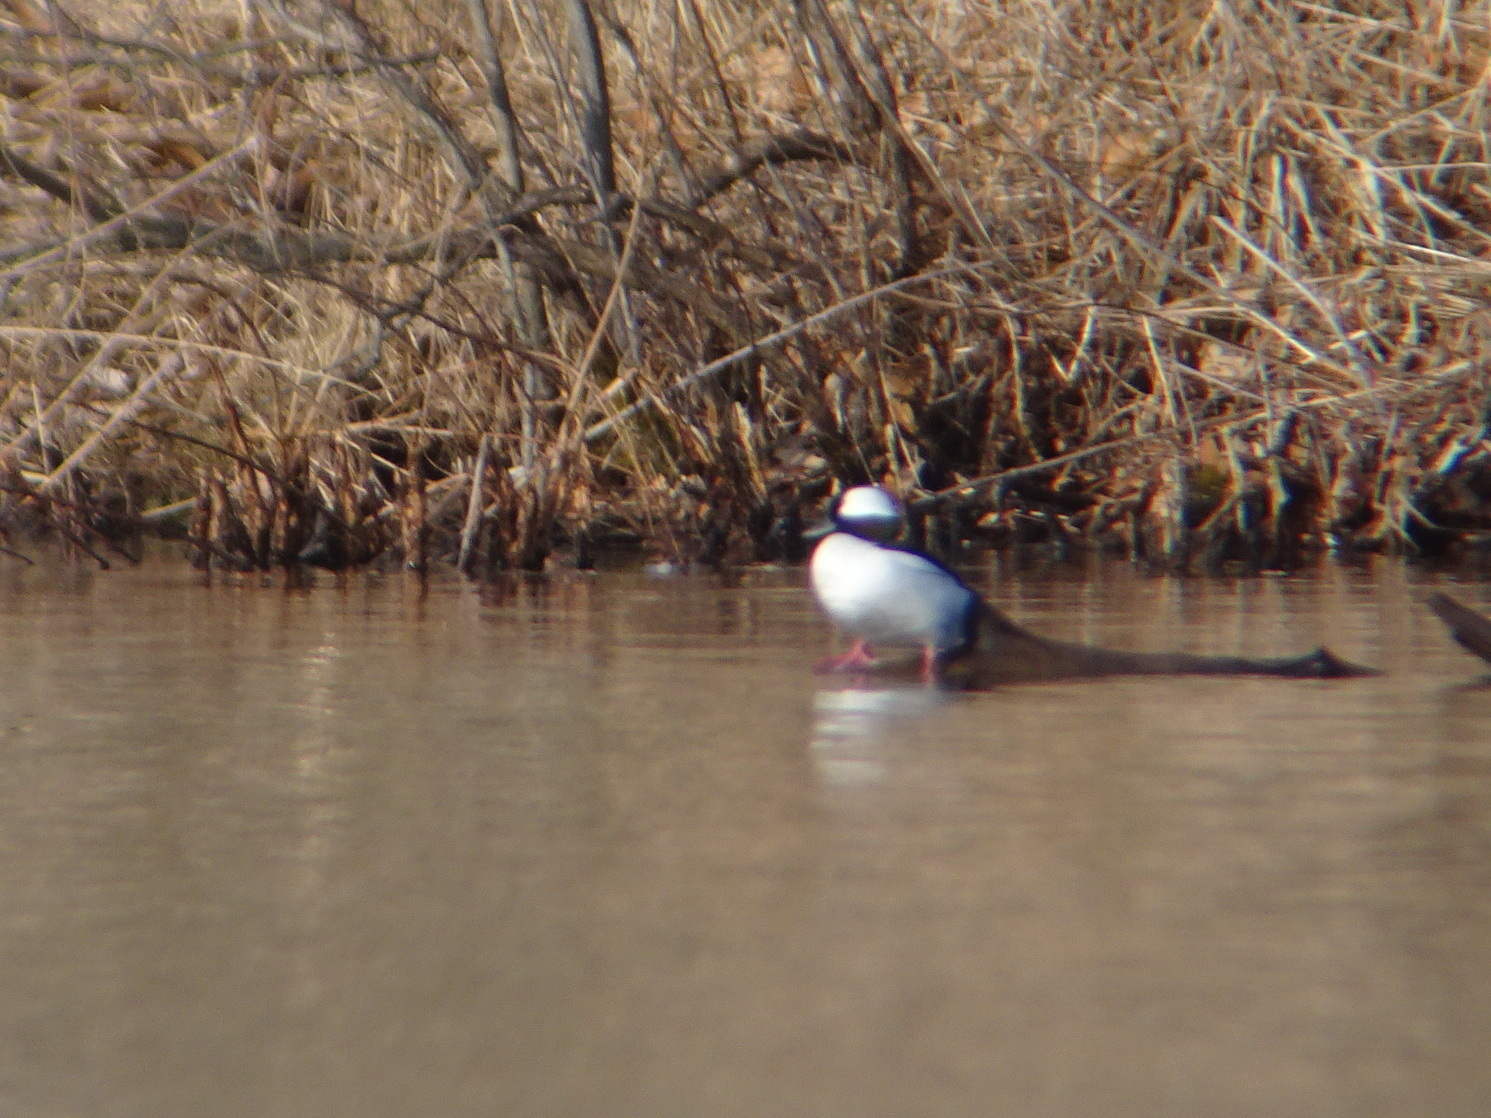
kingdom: Animalia
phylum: Chordata
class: Aves
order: Anseriformes
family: Anatidae
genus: Bucephala
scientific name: Bucephala albeola
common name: Bufflehead
